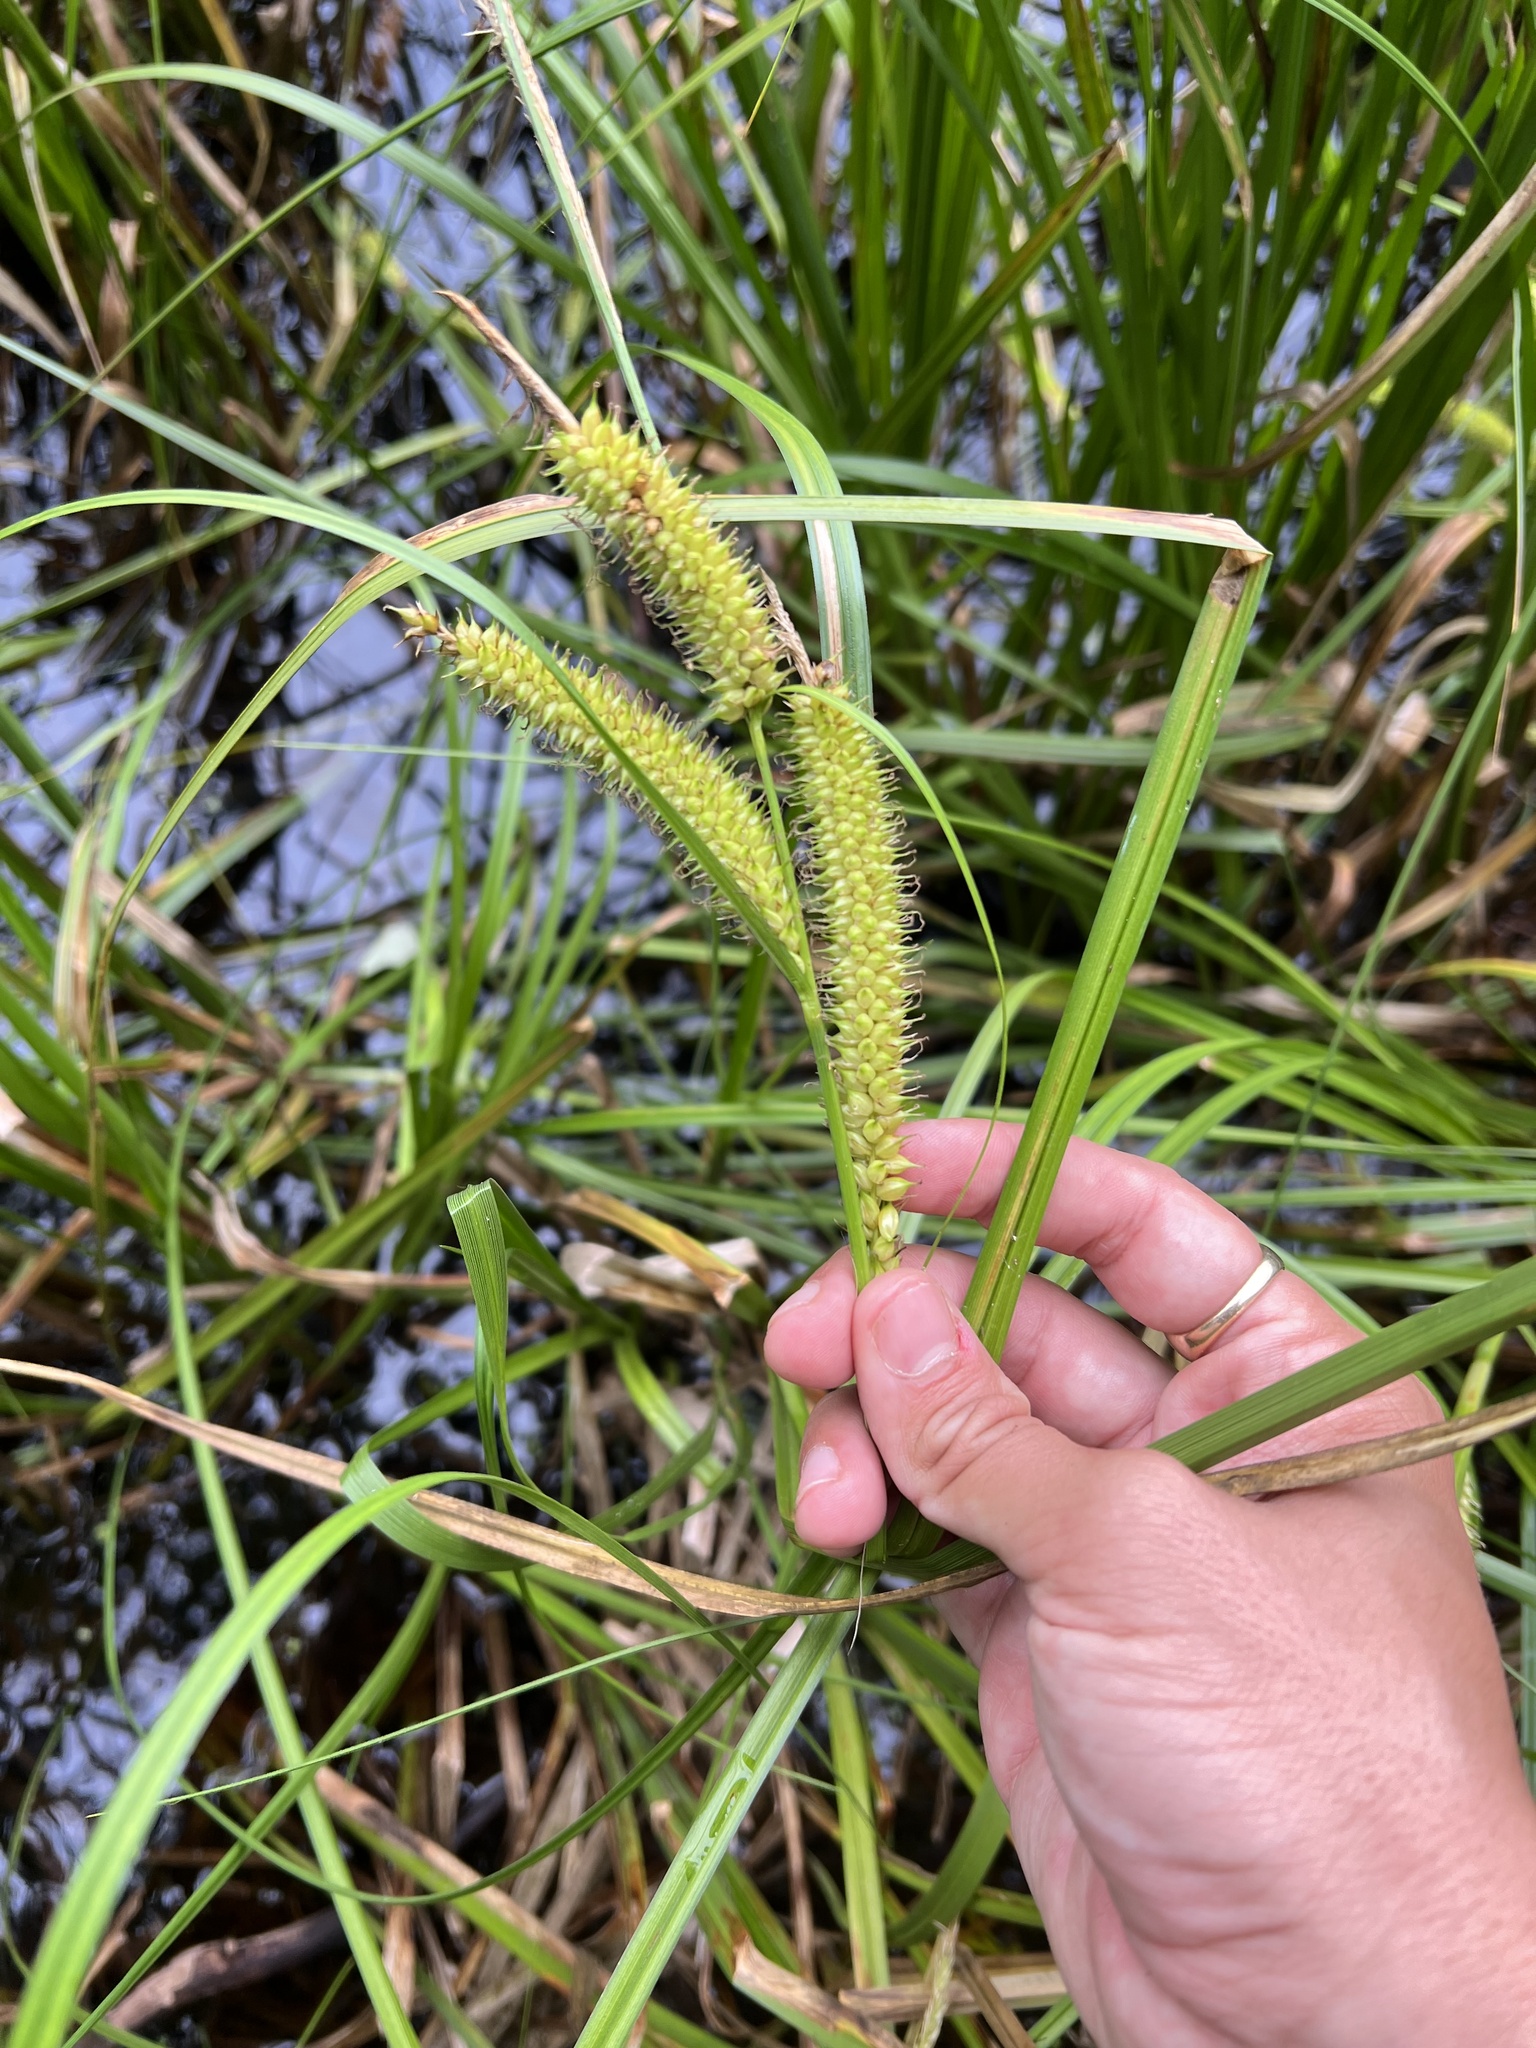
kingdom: Plantae
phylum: Tracheophyta
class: Liliopsida
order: Poales
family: Cyperaceae
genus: Carex
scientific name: Carex utriculata
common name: Beaked sedge
